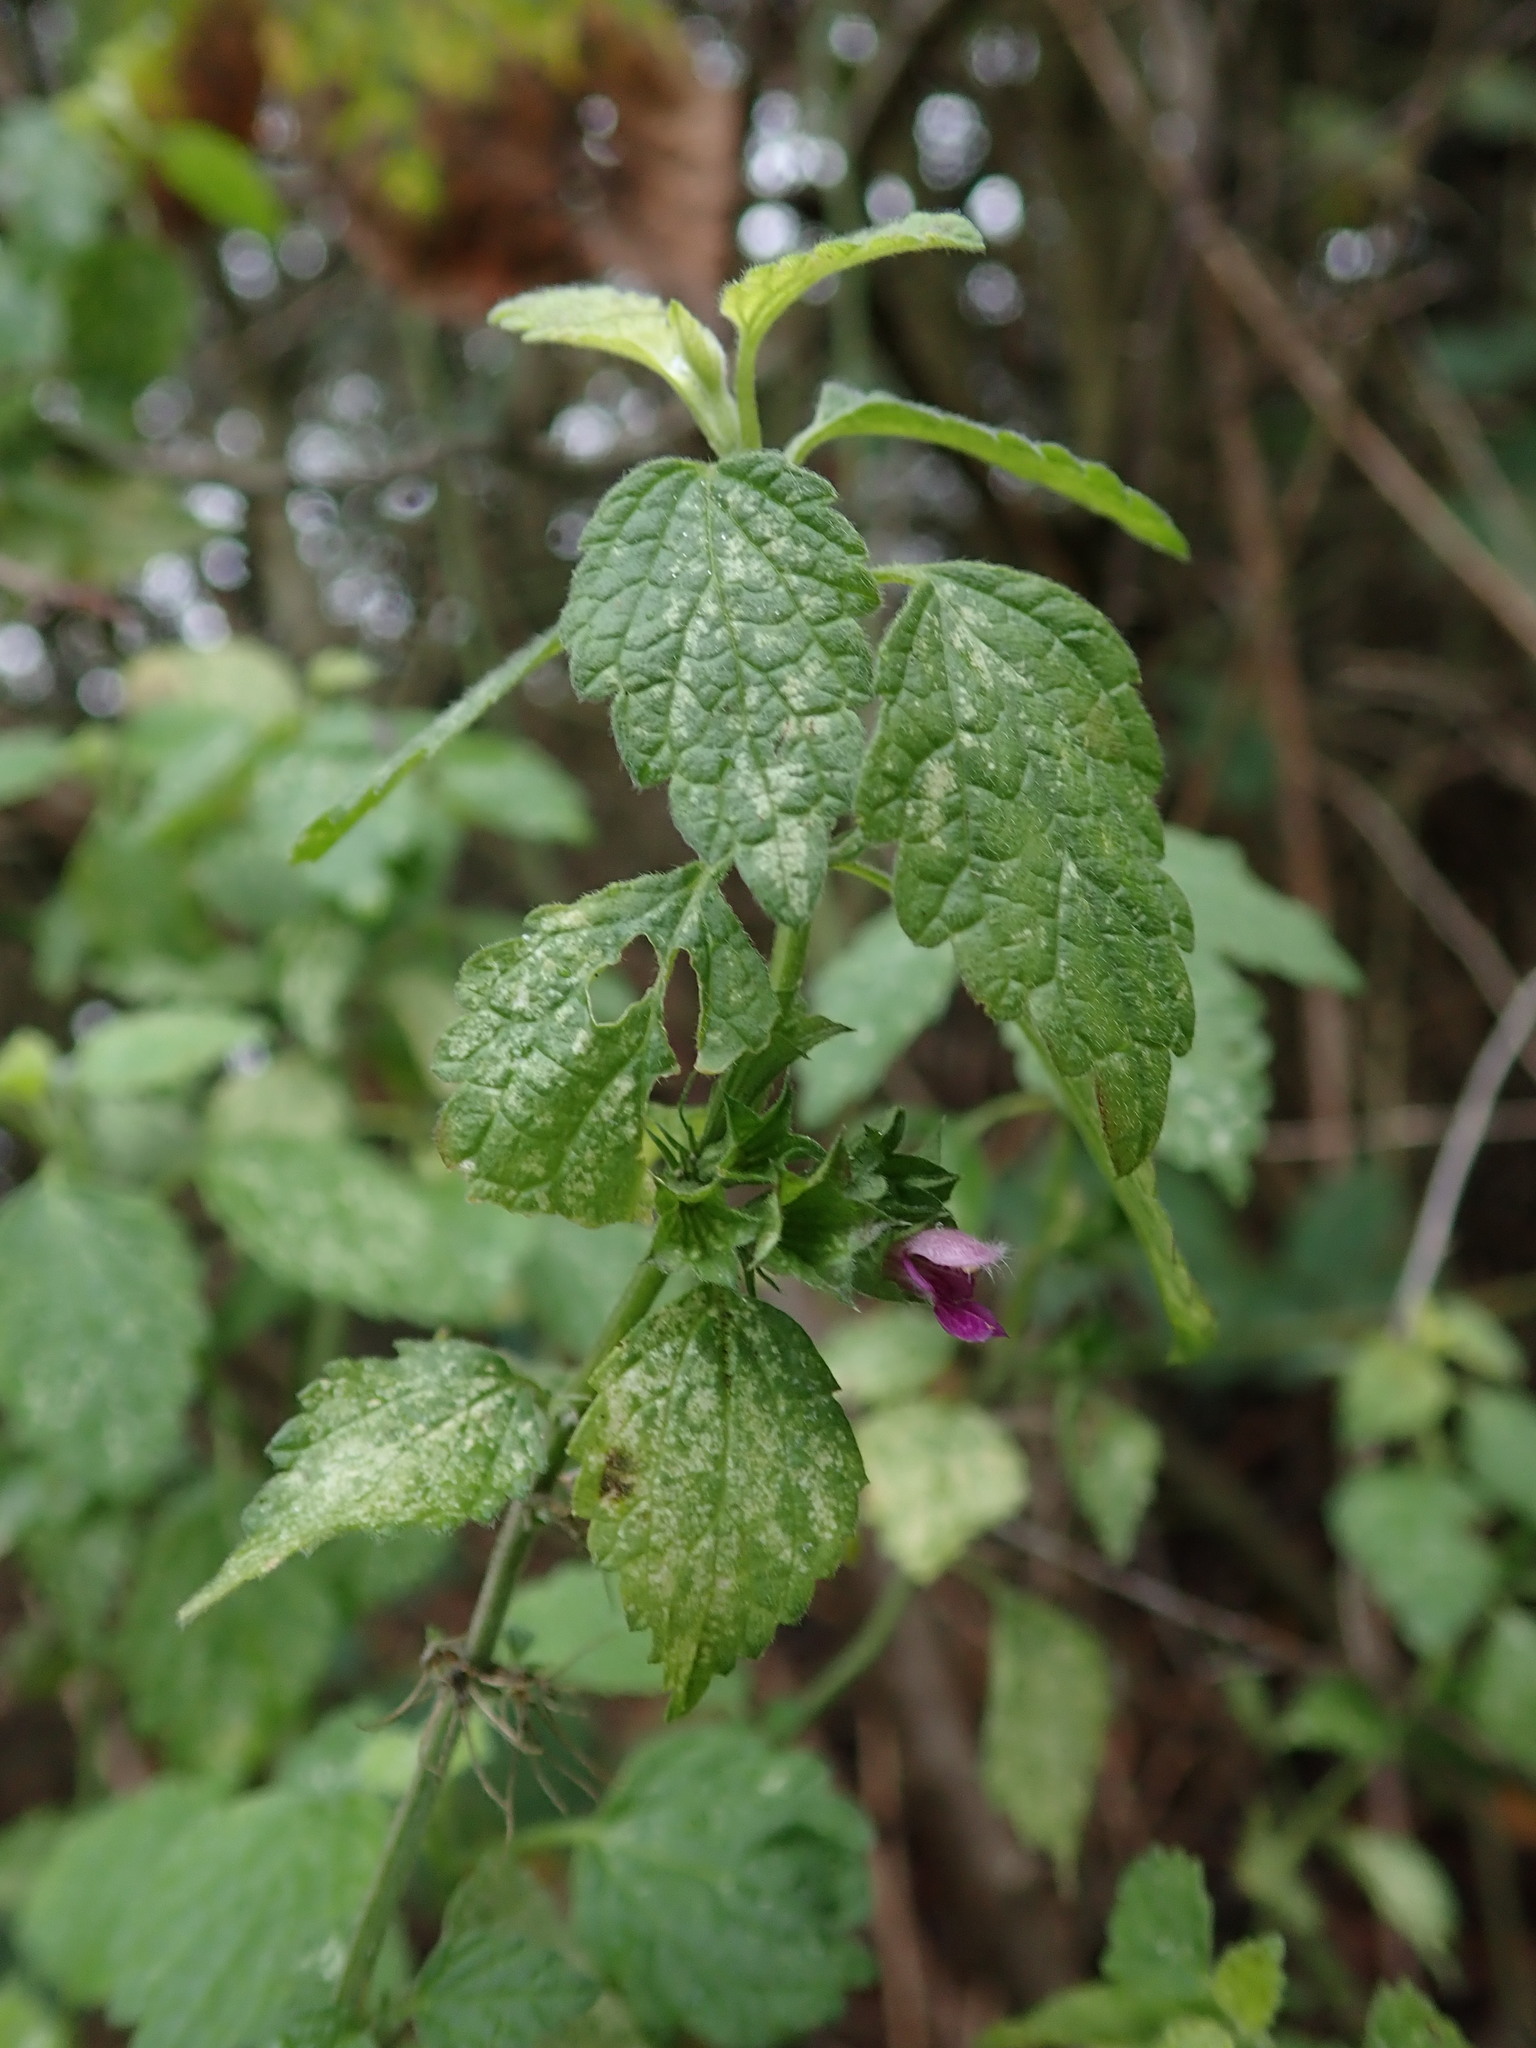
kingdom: Plantae
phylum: Tracheophyta
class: Magnoliopsida
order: Lamiales
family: Lamiaceae
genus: Ballota
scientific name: Ballota nigra
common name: Black horehound
